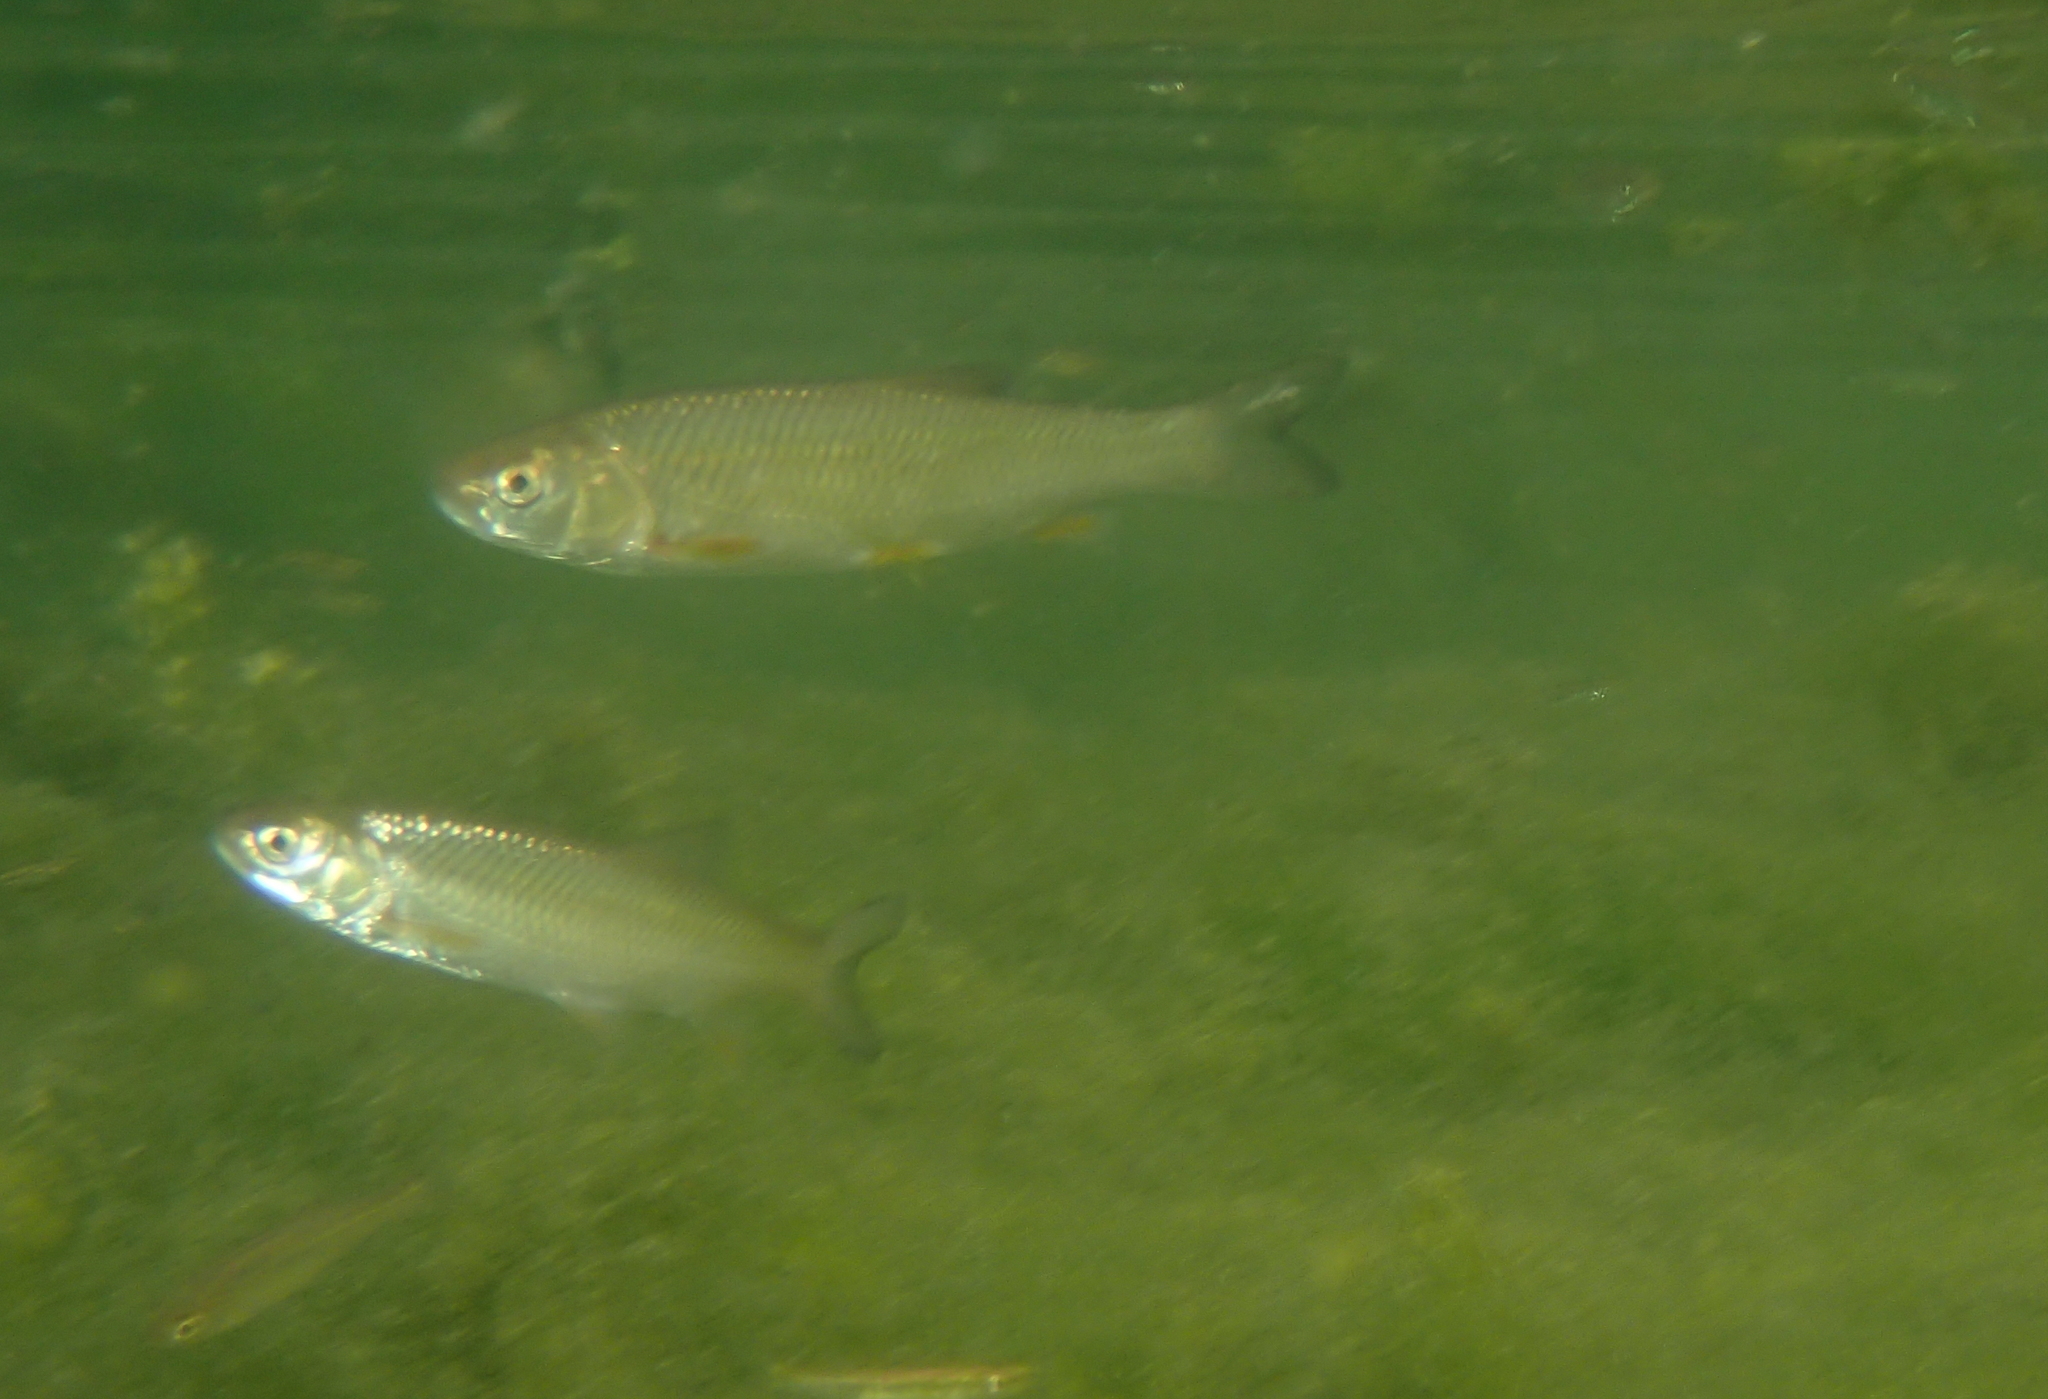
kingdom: Animalia
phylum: Chordata
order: Cypriniformes
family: Cyprinidae
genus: Squalius
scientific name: Squalius cephalus
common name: Chub
